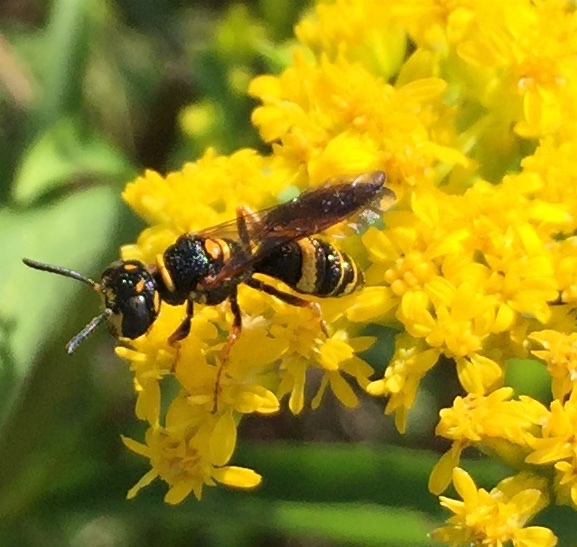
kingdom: Animalia
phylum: Arthropoda
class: Insecta
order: Hymenoptera
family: Crabronidae
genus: Philanthus
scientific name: Philanthus gibbosus
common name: Humped beewolf
